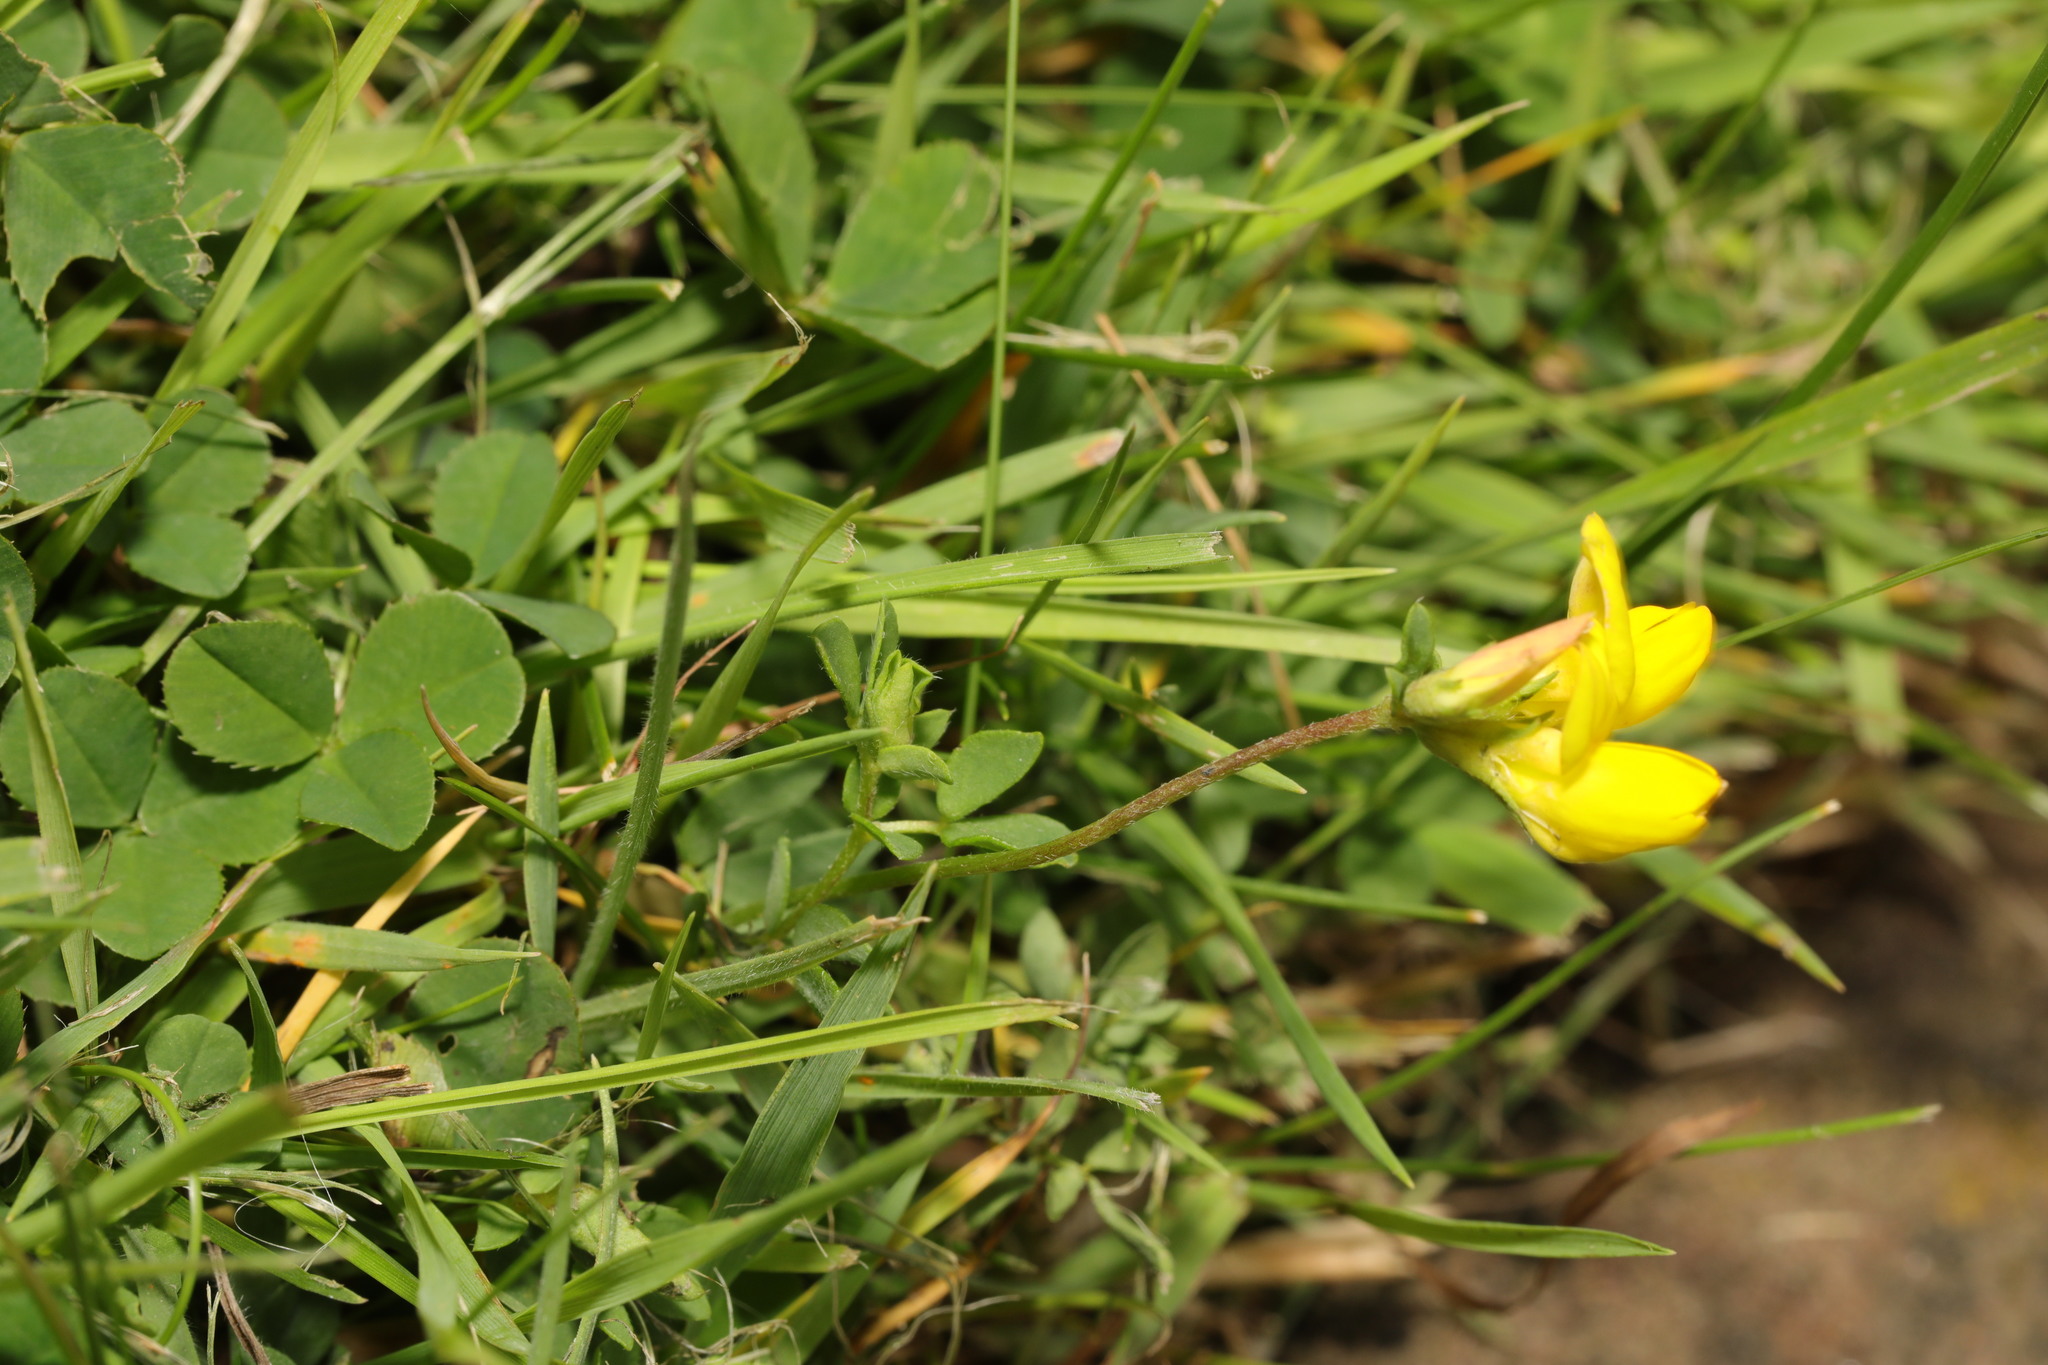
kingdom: Plantae
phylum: Tracheophyta
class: Magnoliopsida
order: Fabales
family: Fabaceae
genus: Lotus
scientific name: Lotus corniculatus
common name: Common bird's-foot-trefoil
